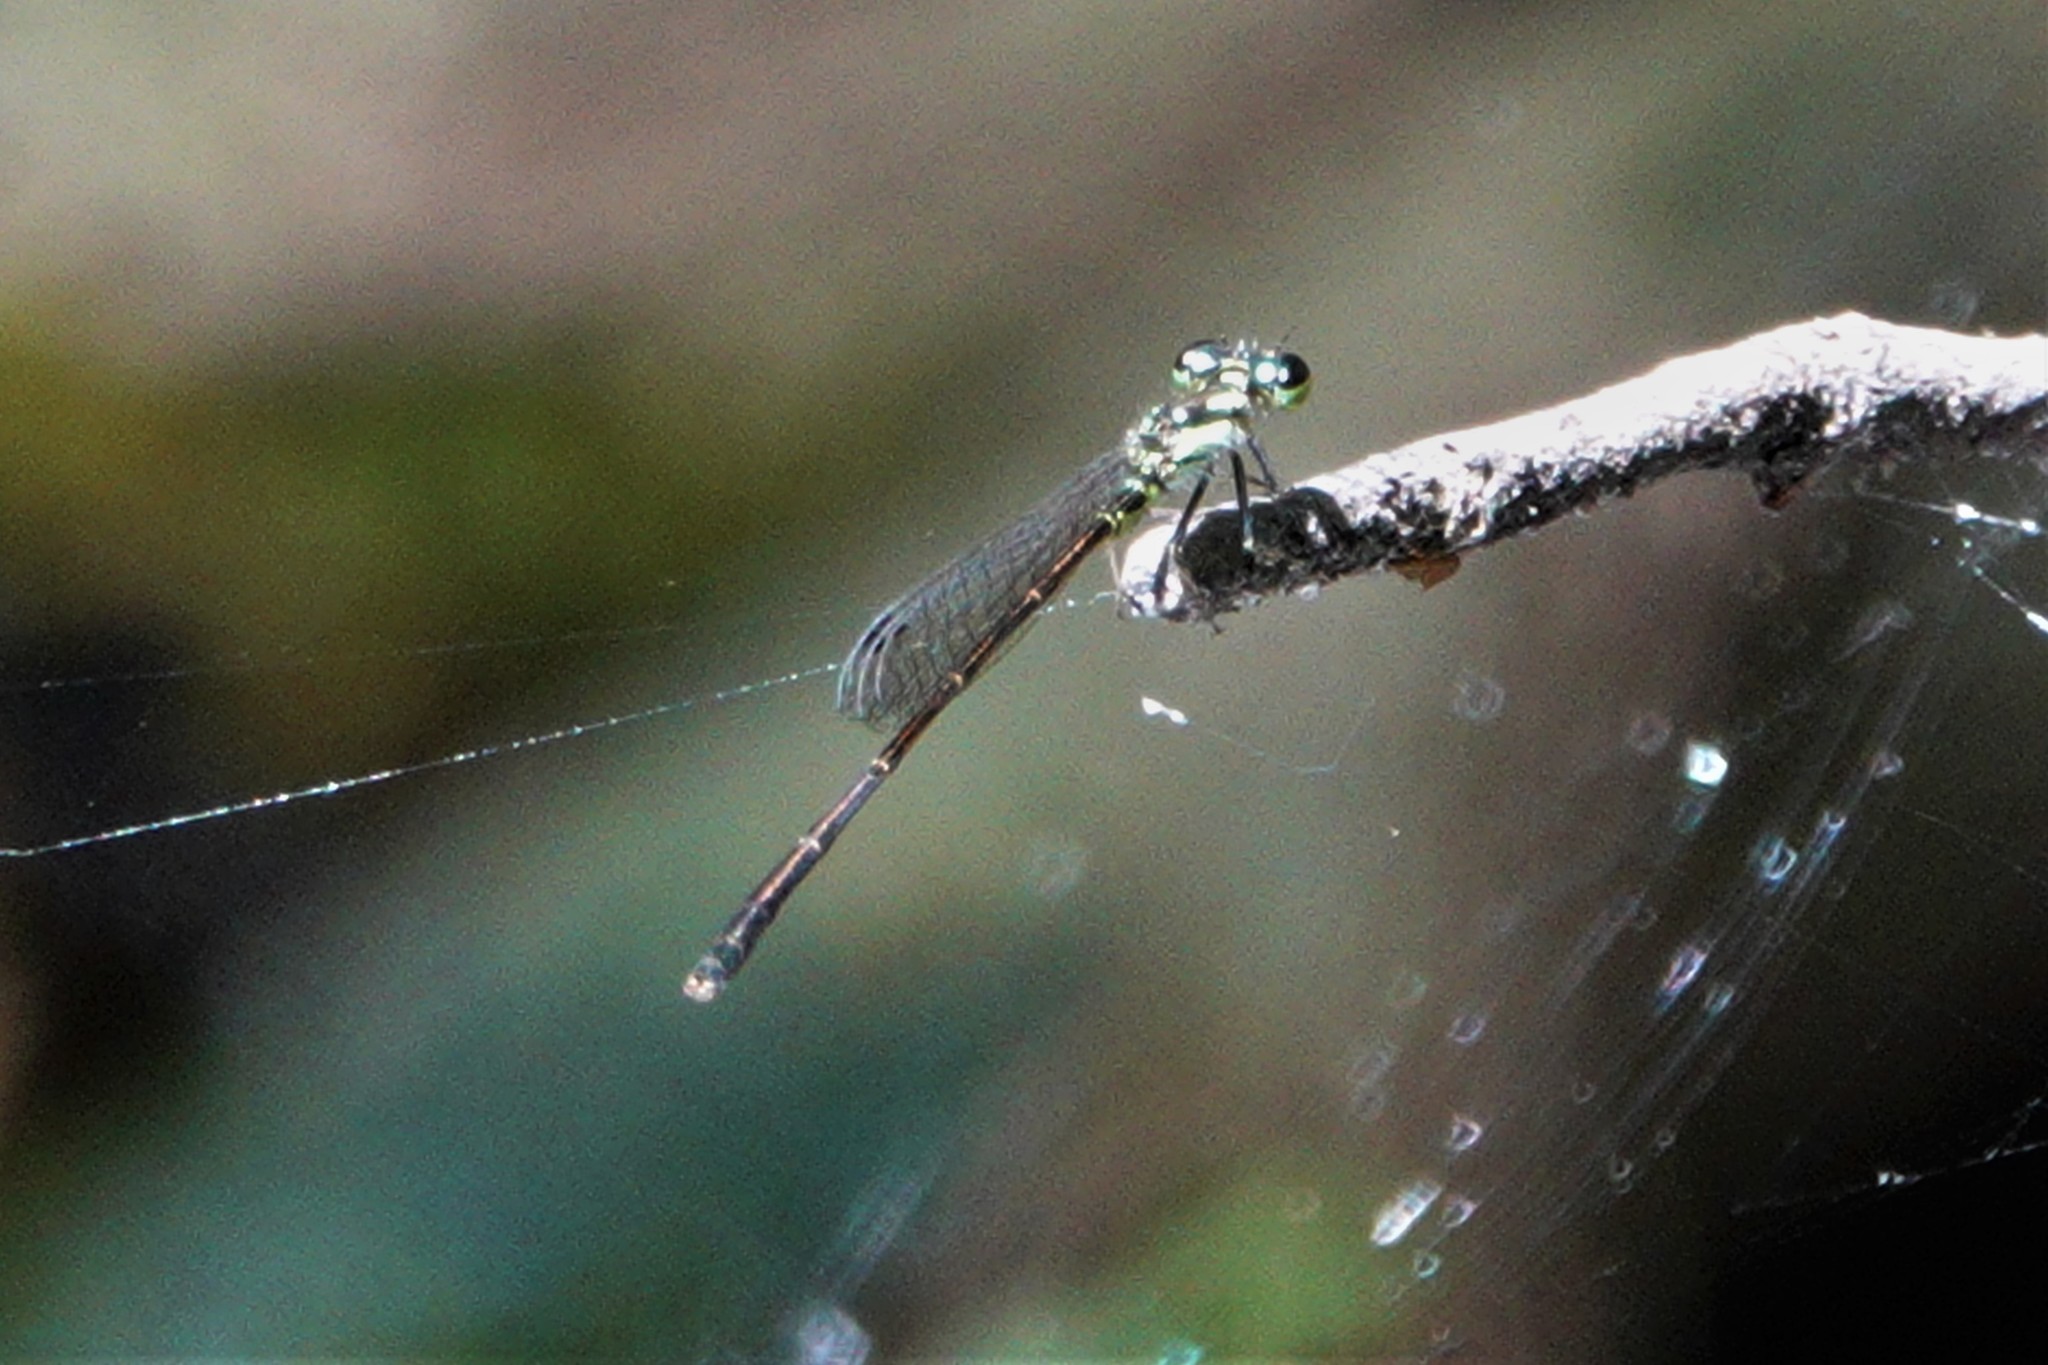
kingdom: Animalia
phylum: Arthropoda
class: Insecta
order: Odonata
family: Coenagrionidae
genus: Ischnura
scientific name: Ischnura posita
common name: Fragile forktail
